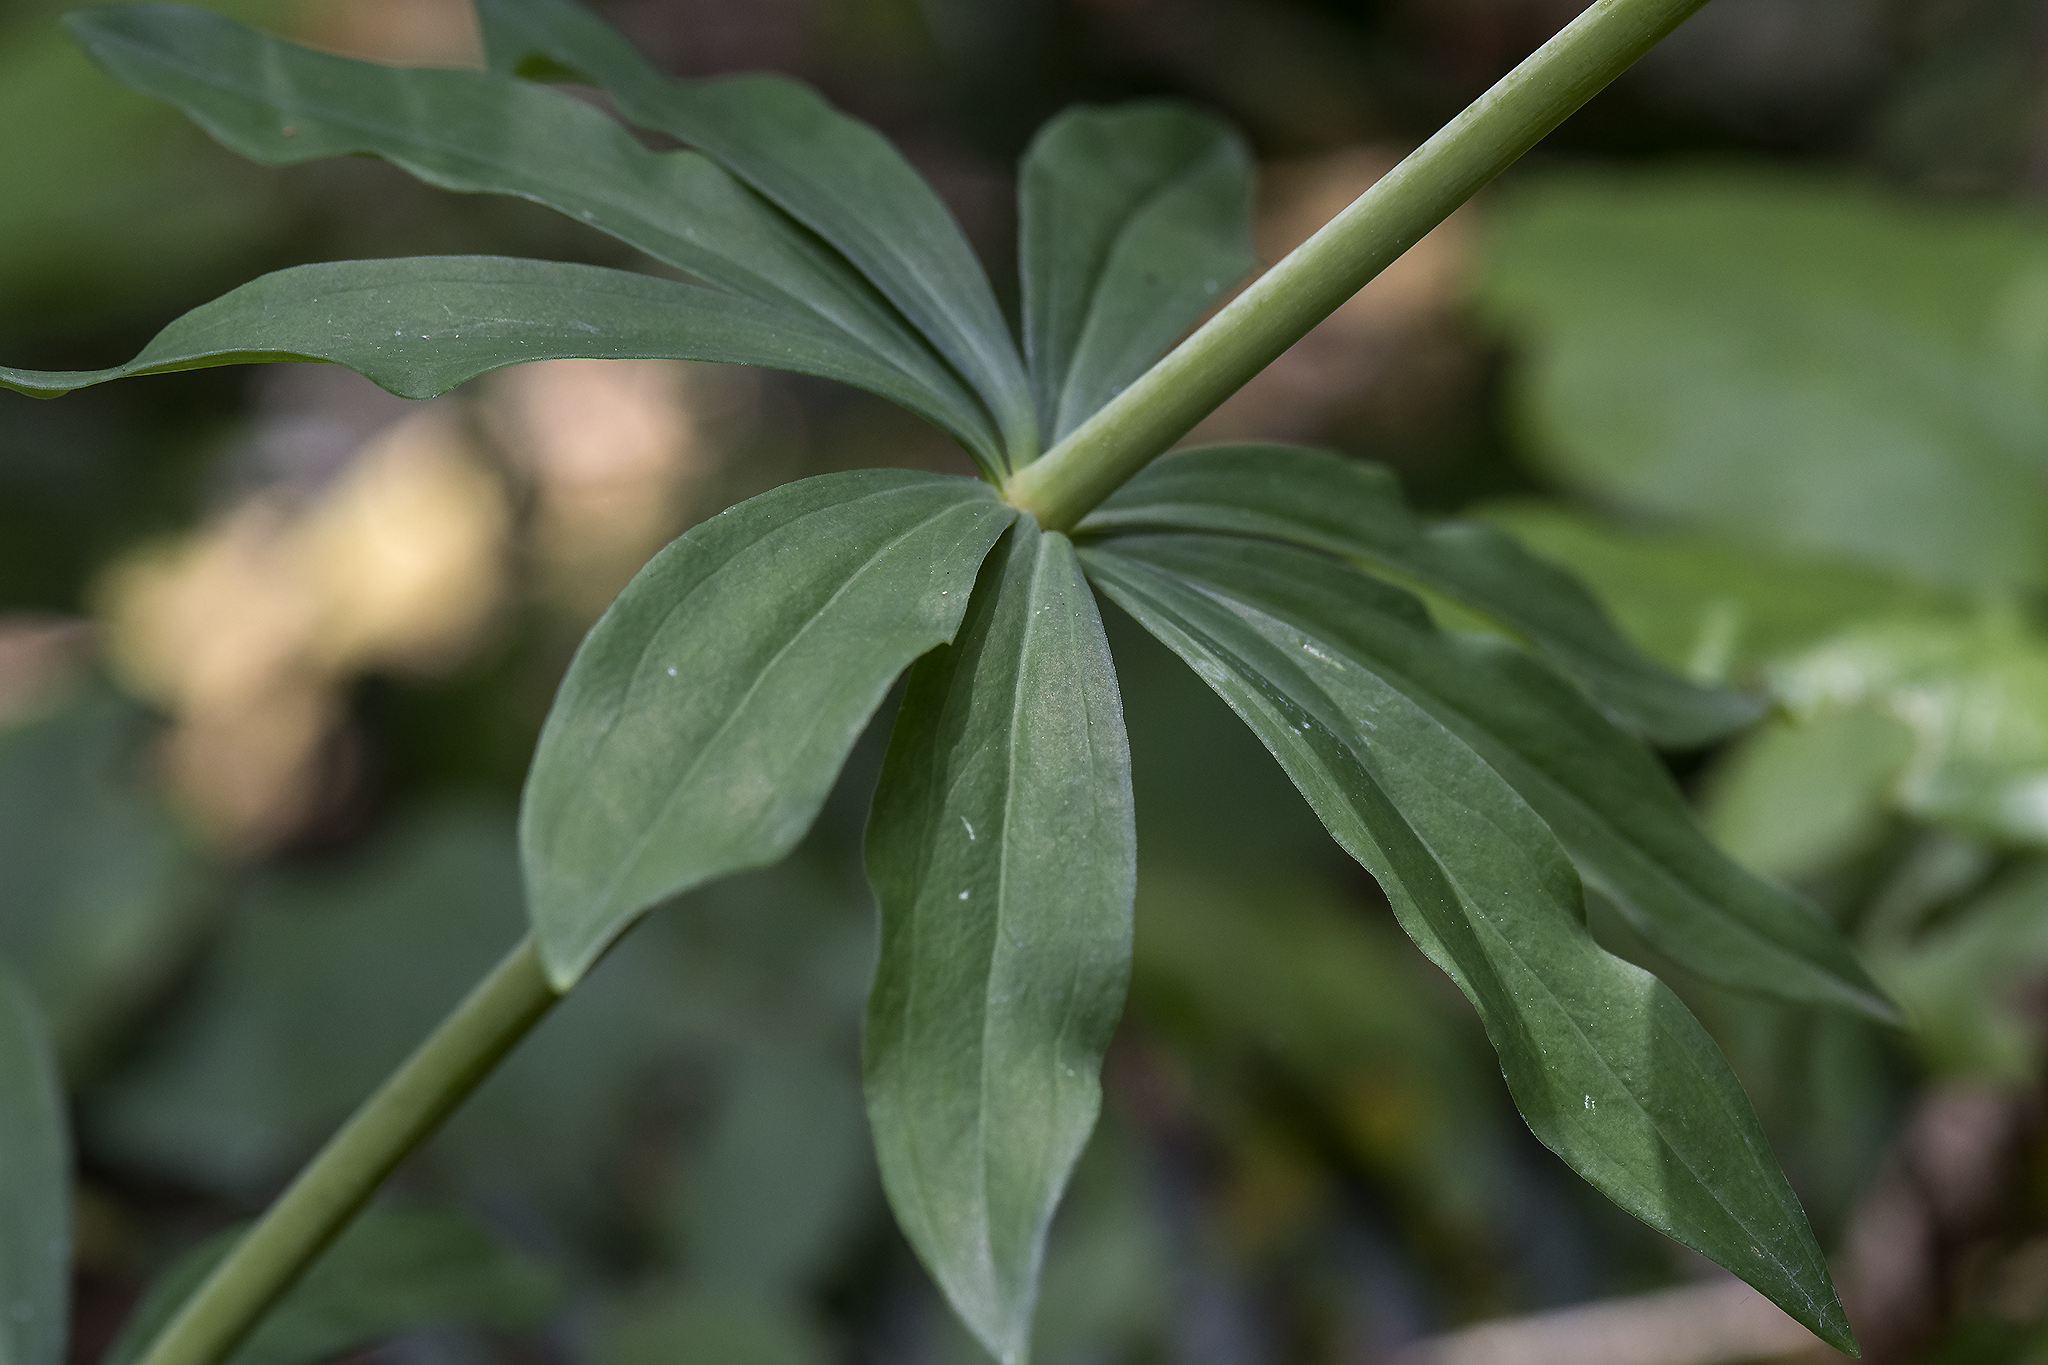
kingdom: Plantae
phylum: Tracheophyta
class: Liliopsida
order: Liliales
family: Liliaceae
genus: Lilium
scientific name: Lilium columbianum
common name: Columbia lily
